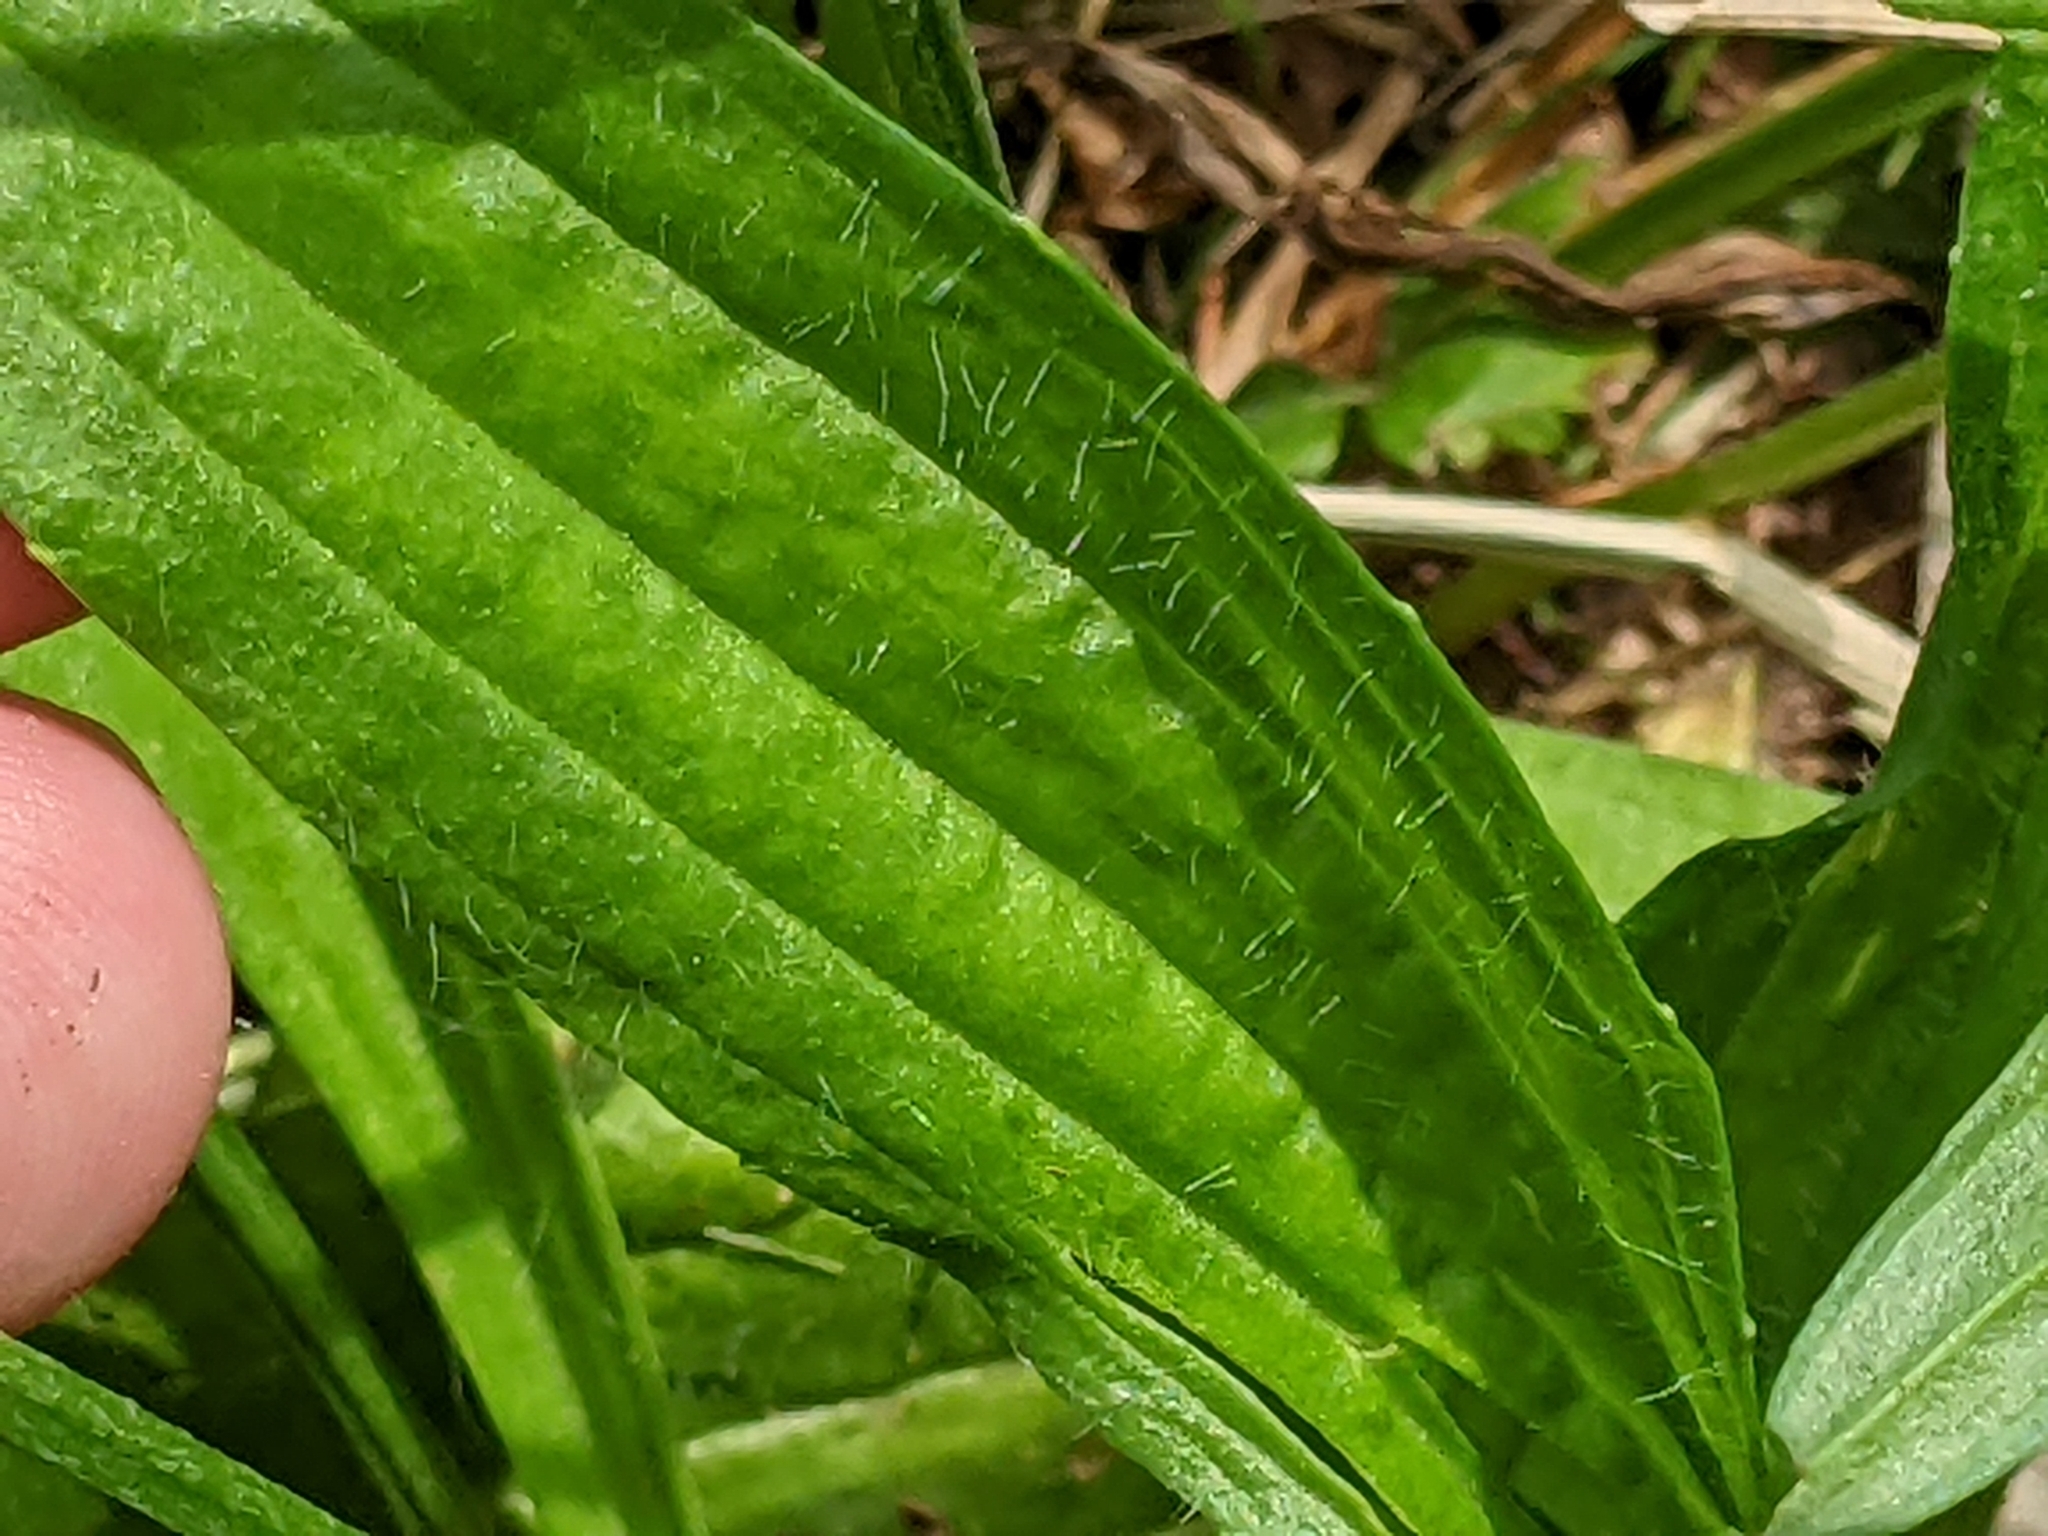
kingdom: Plantae
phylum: Tracheophyta
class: Magnoliopsida
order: Lamiales
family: Plantaginaceae
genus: Plantago
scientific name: Plantago lanceolata
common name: Ribwort plantain
